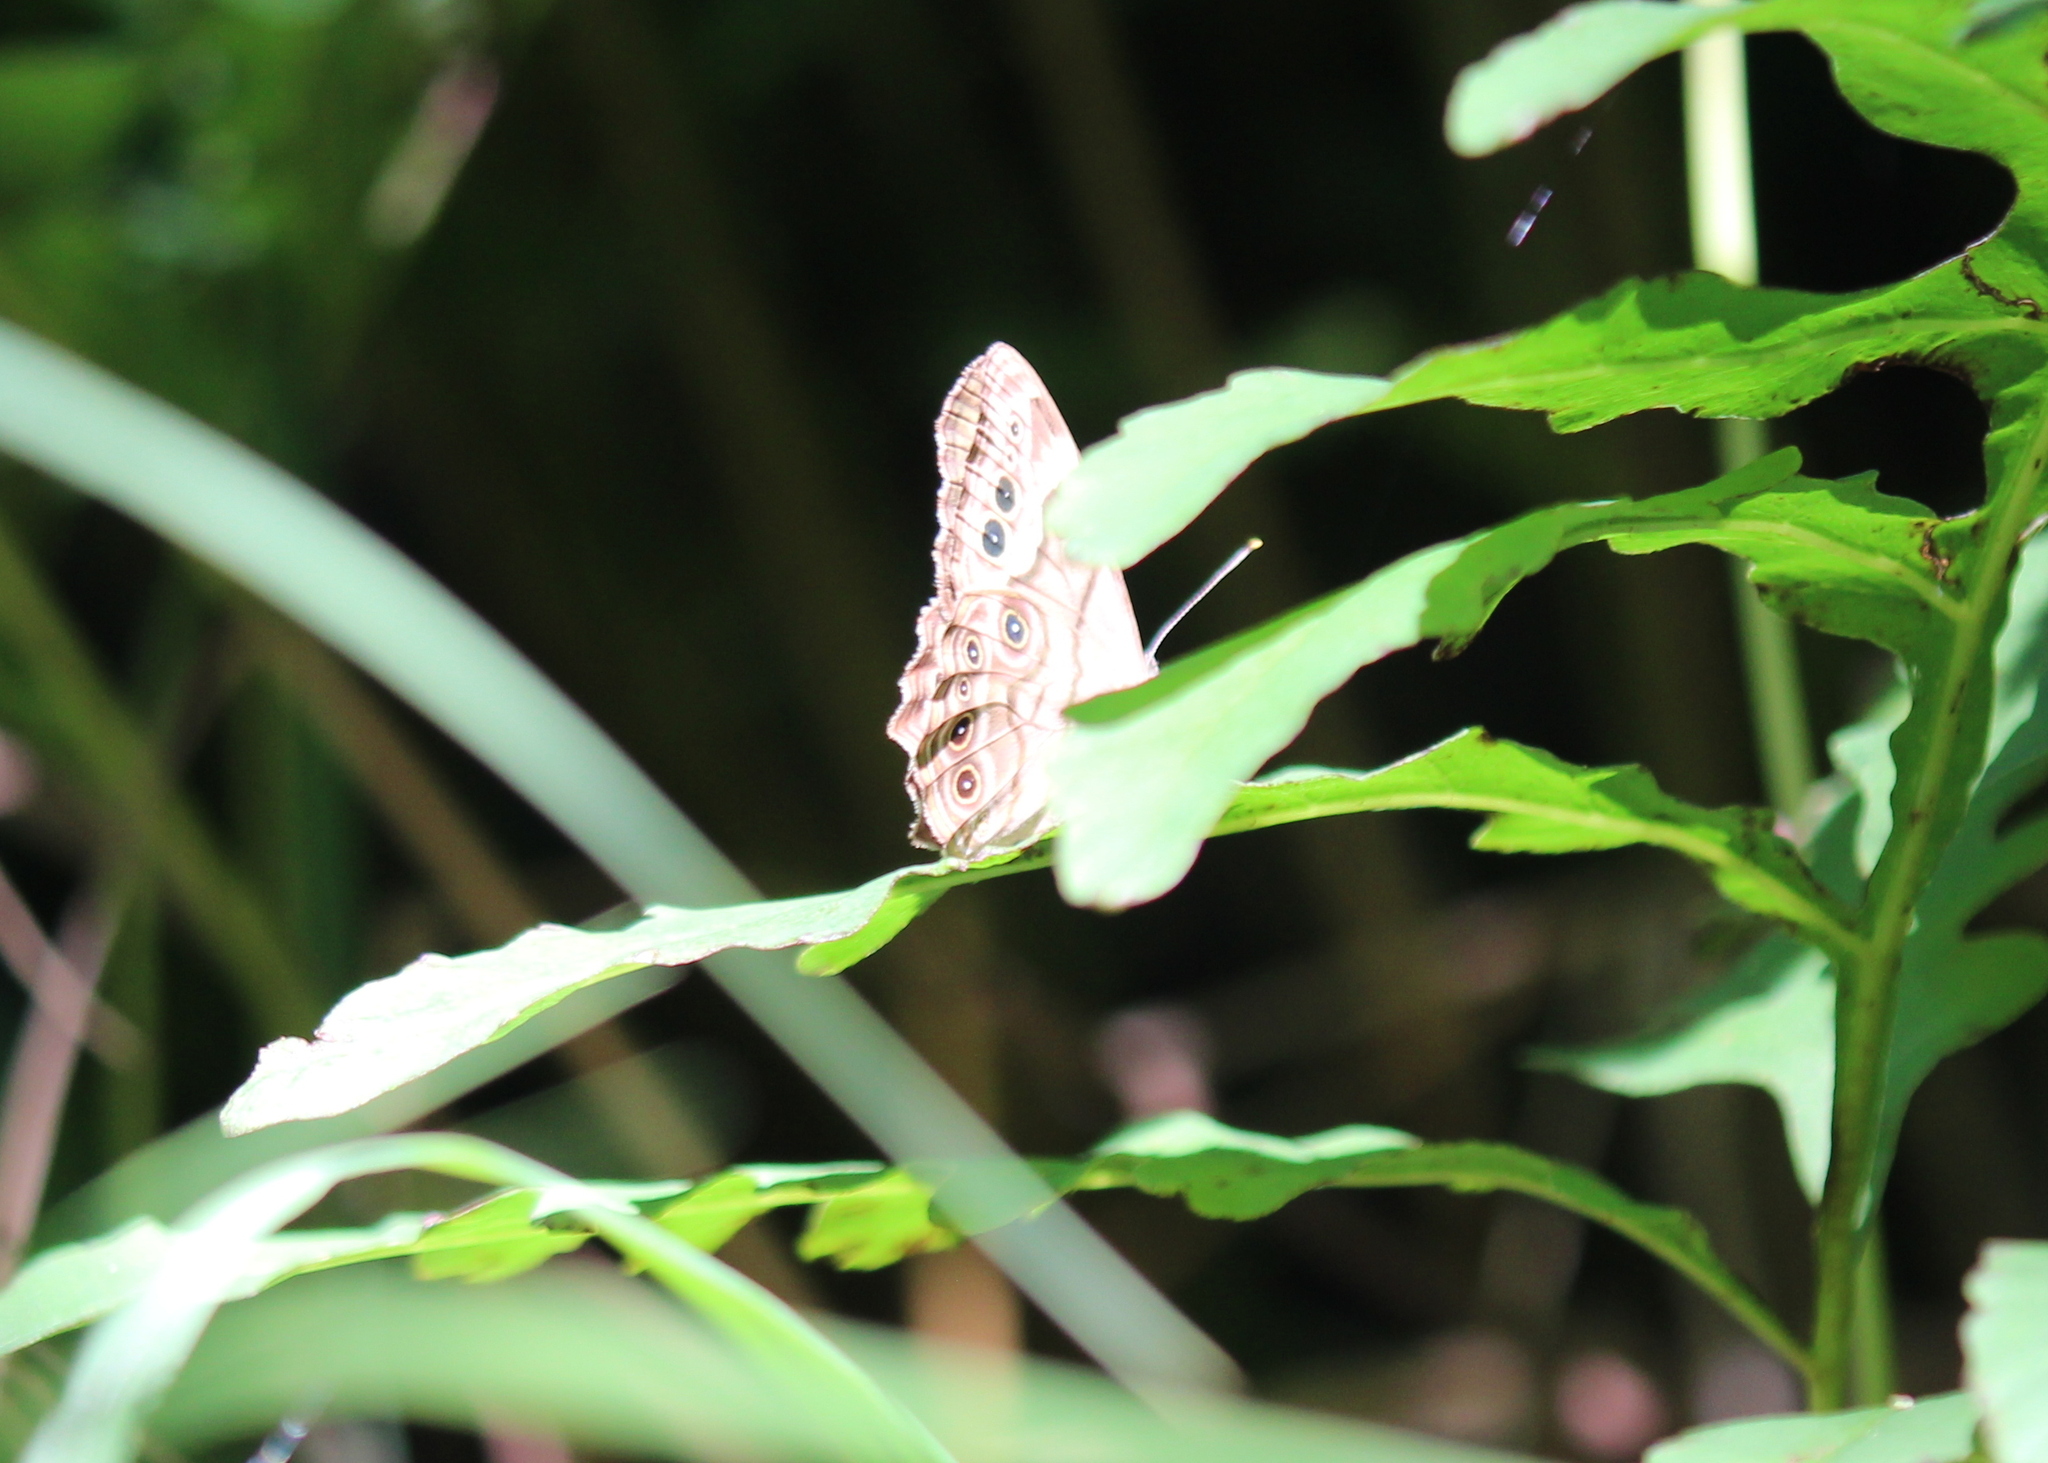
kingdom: Animalia
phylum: Arthropoda
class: Insecta
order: Lepidoptera
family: Nymphalidae
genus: Lethe
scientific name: Lethe anthedon
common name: Northern pearly-eye
